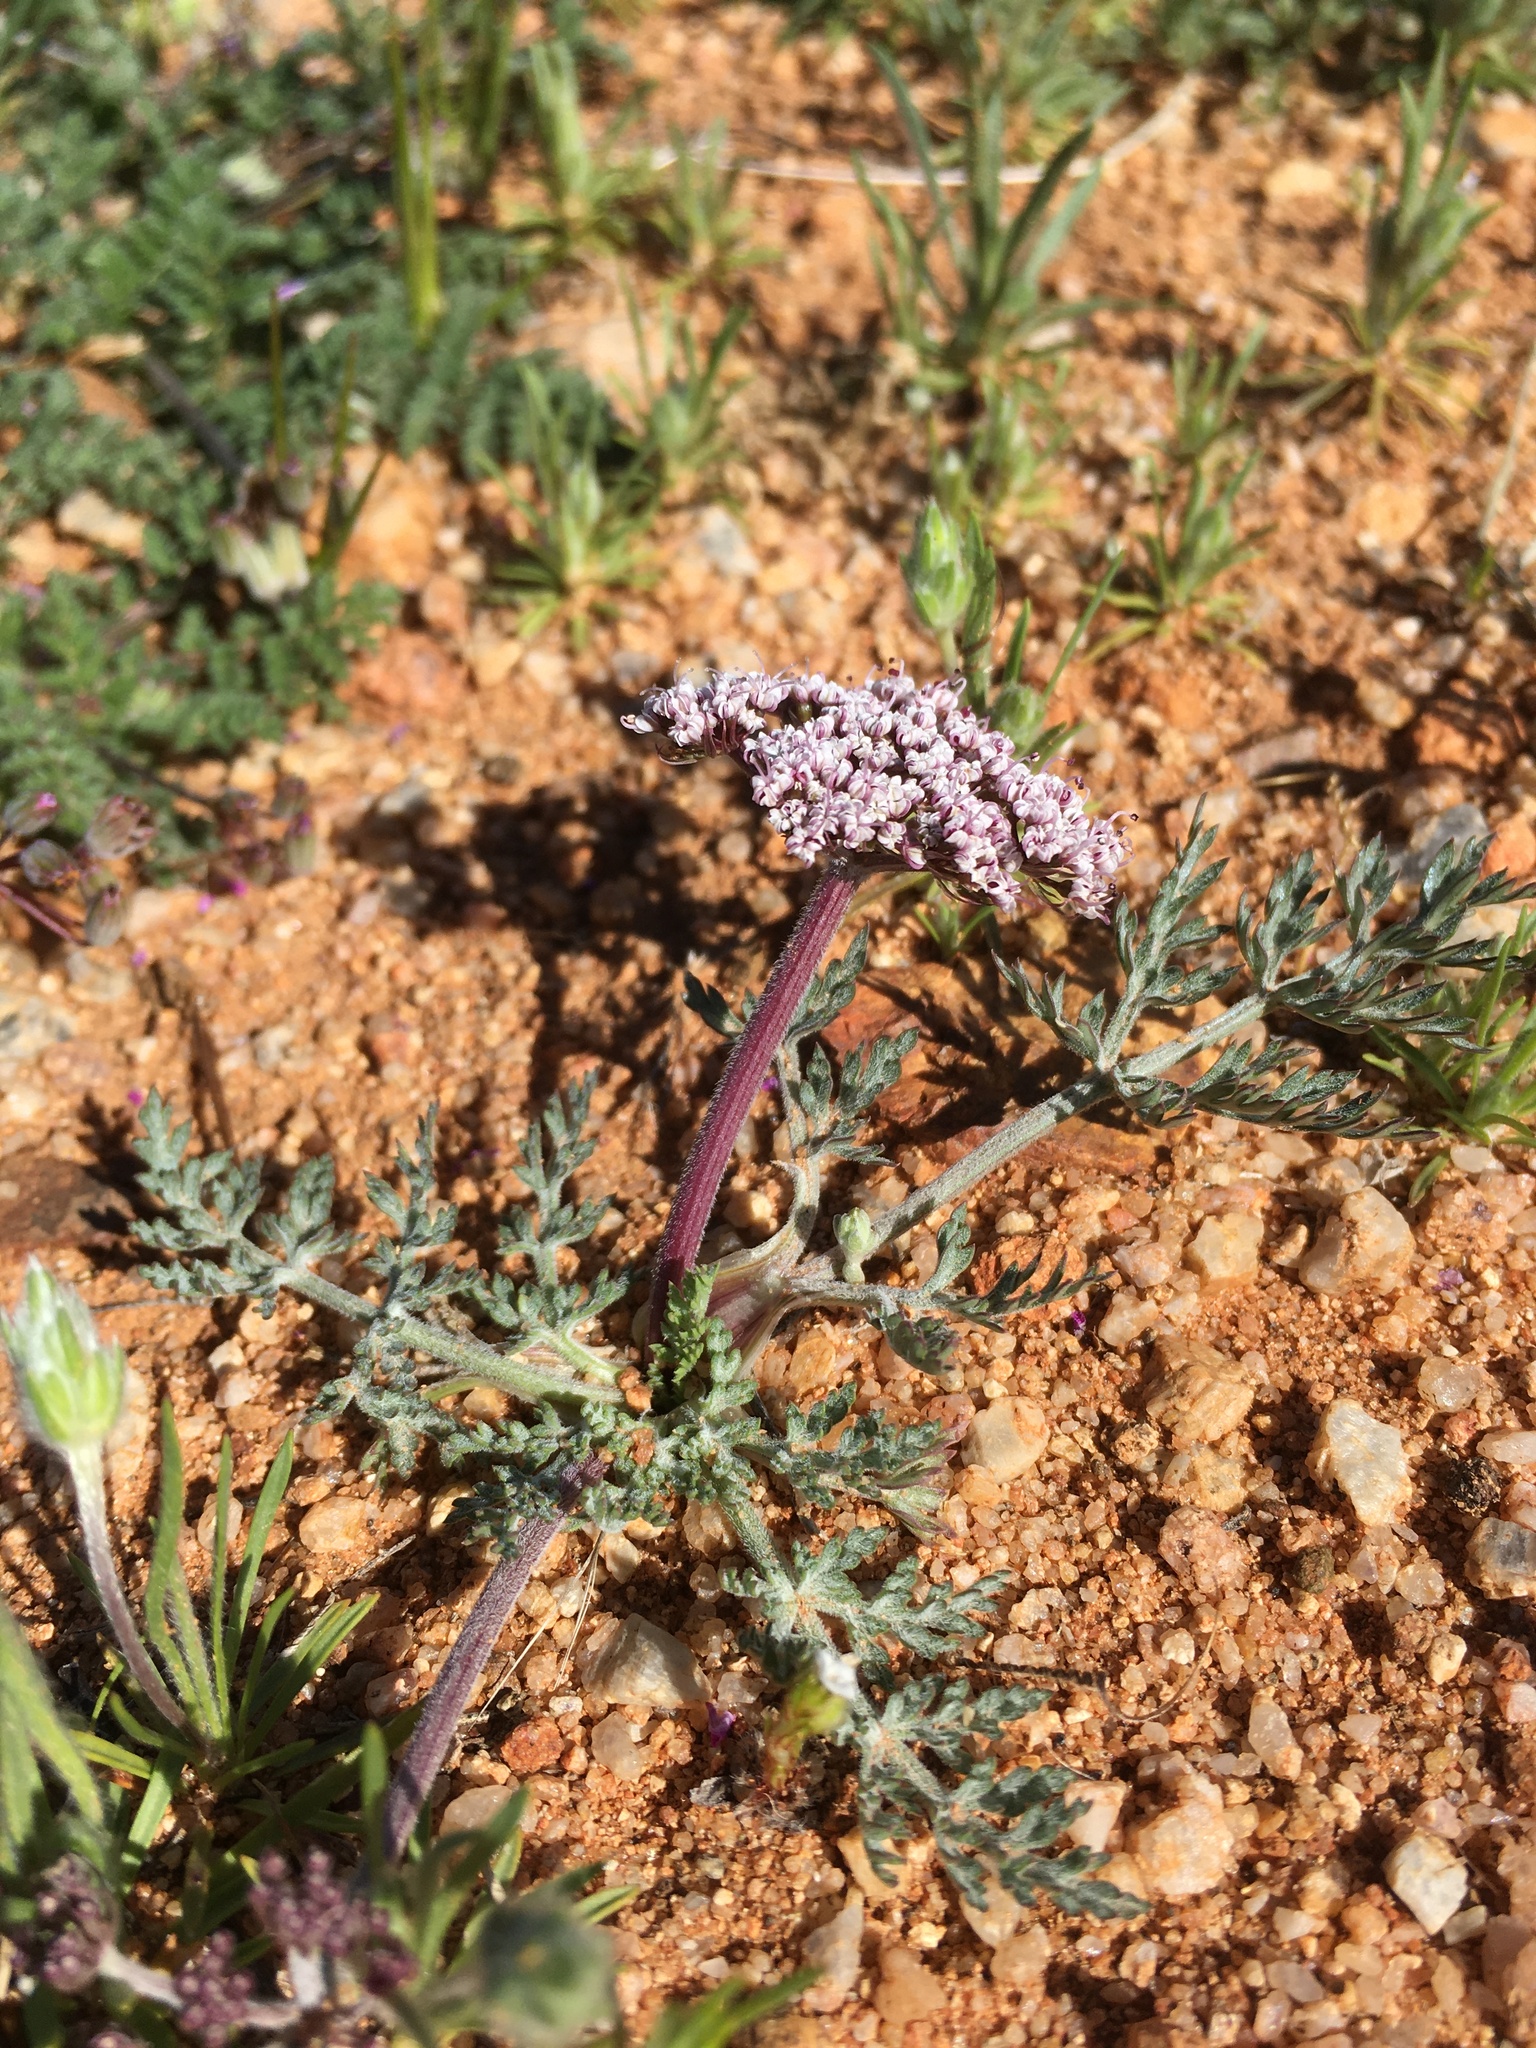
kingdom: Plantae
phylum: Tracheophyta
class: Magnoliopsida
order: Apiales
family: Apiaceae
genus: Lomatium
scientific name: Lomatium nevadense
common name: Nevada lomatium
